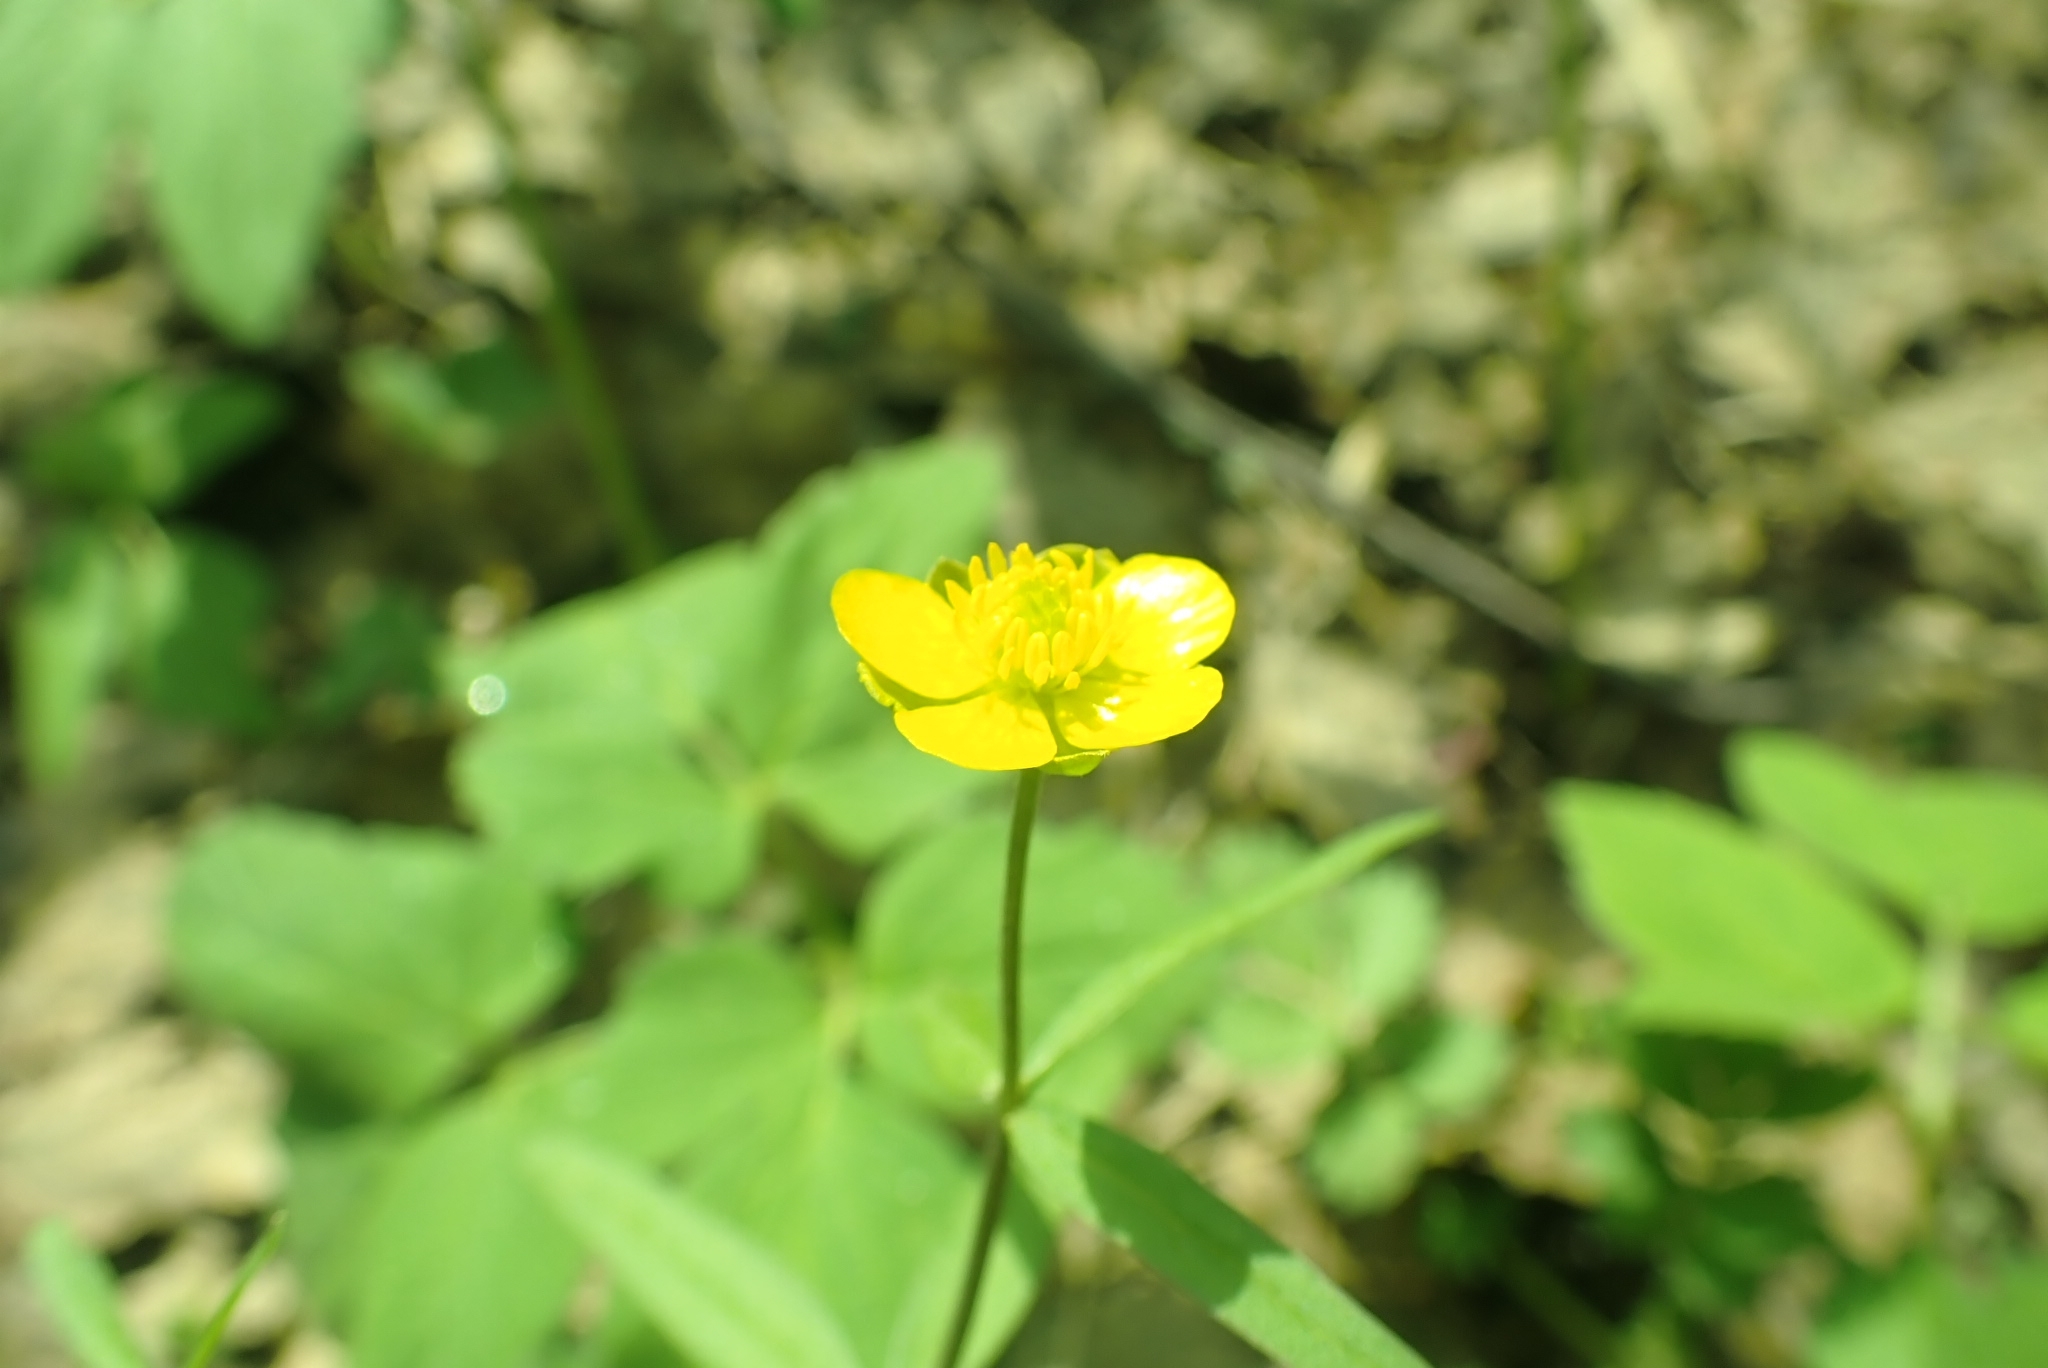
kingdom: Plantae
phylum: Tracheophyta
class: Magnoliopsida
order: Ranunculales
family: Ranunculaceae
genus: Ranunculus
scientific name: Ranunculus monophyllus
